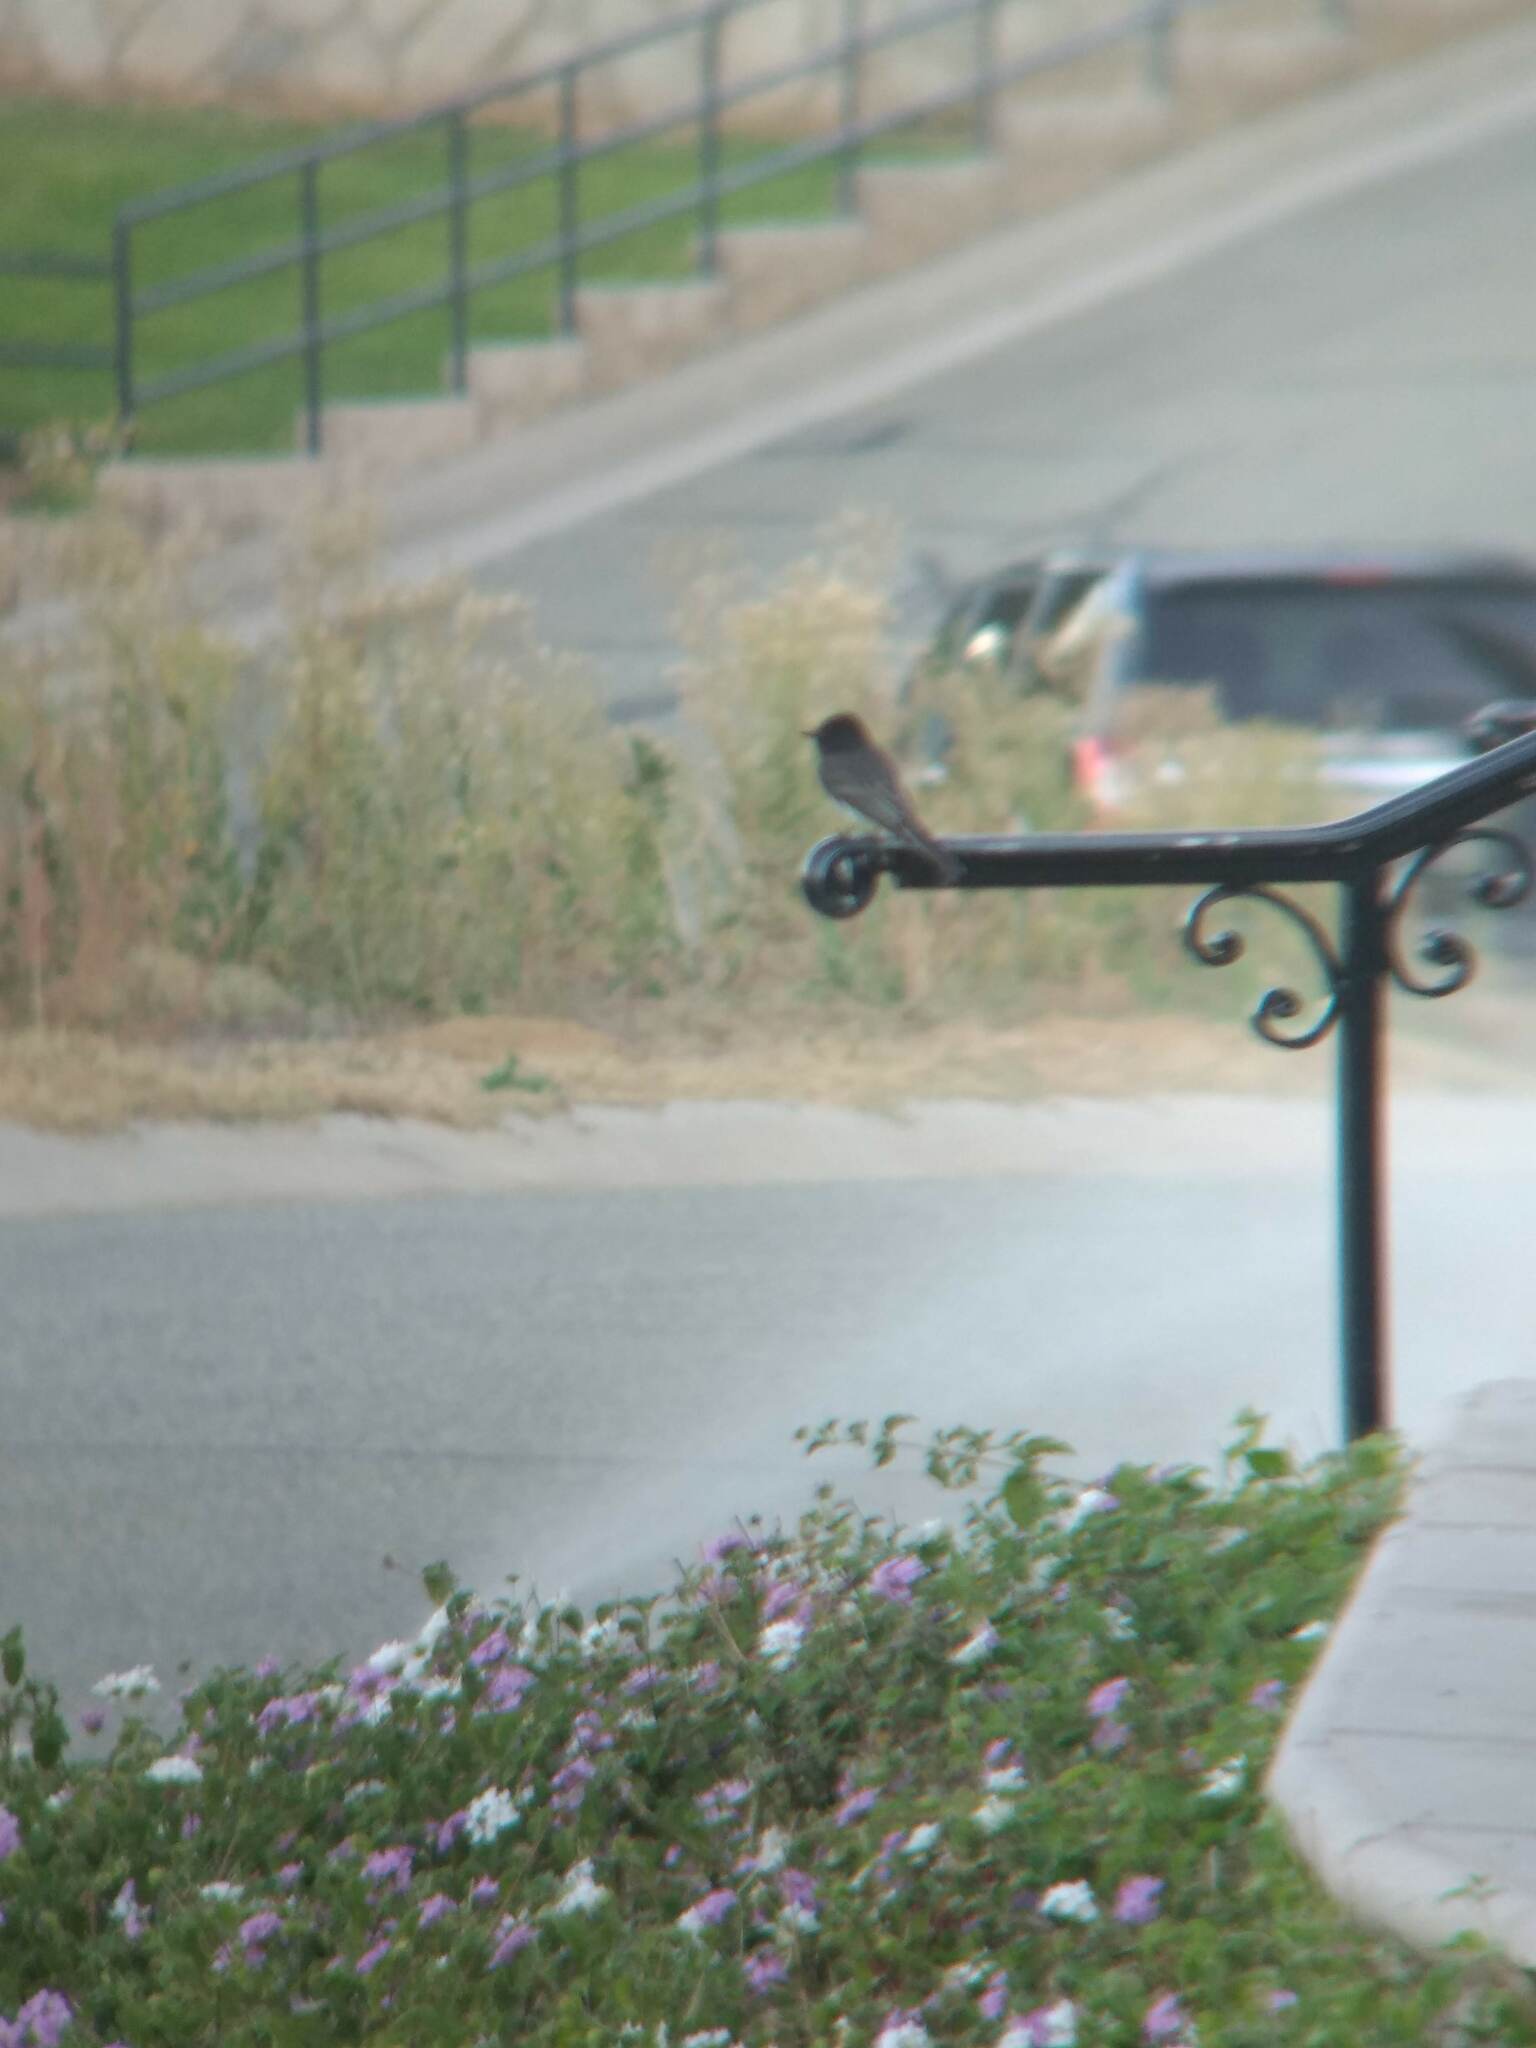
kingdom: Animalia
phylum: Chordata
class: Aves
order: Passeriformes
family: Tyrannidae
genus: Sayornis
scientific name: Sayornis nigricans
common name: Black phoebe
